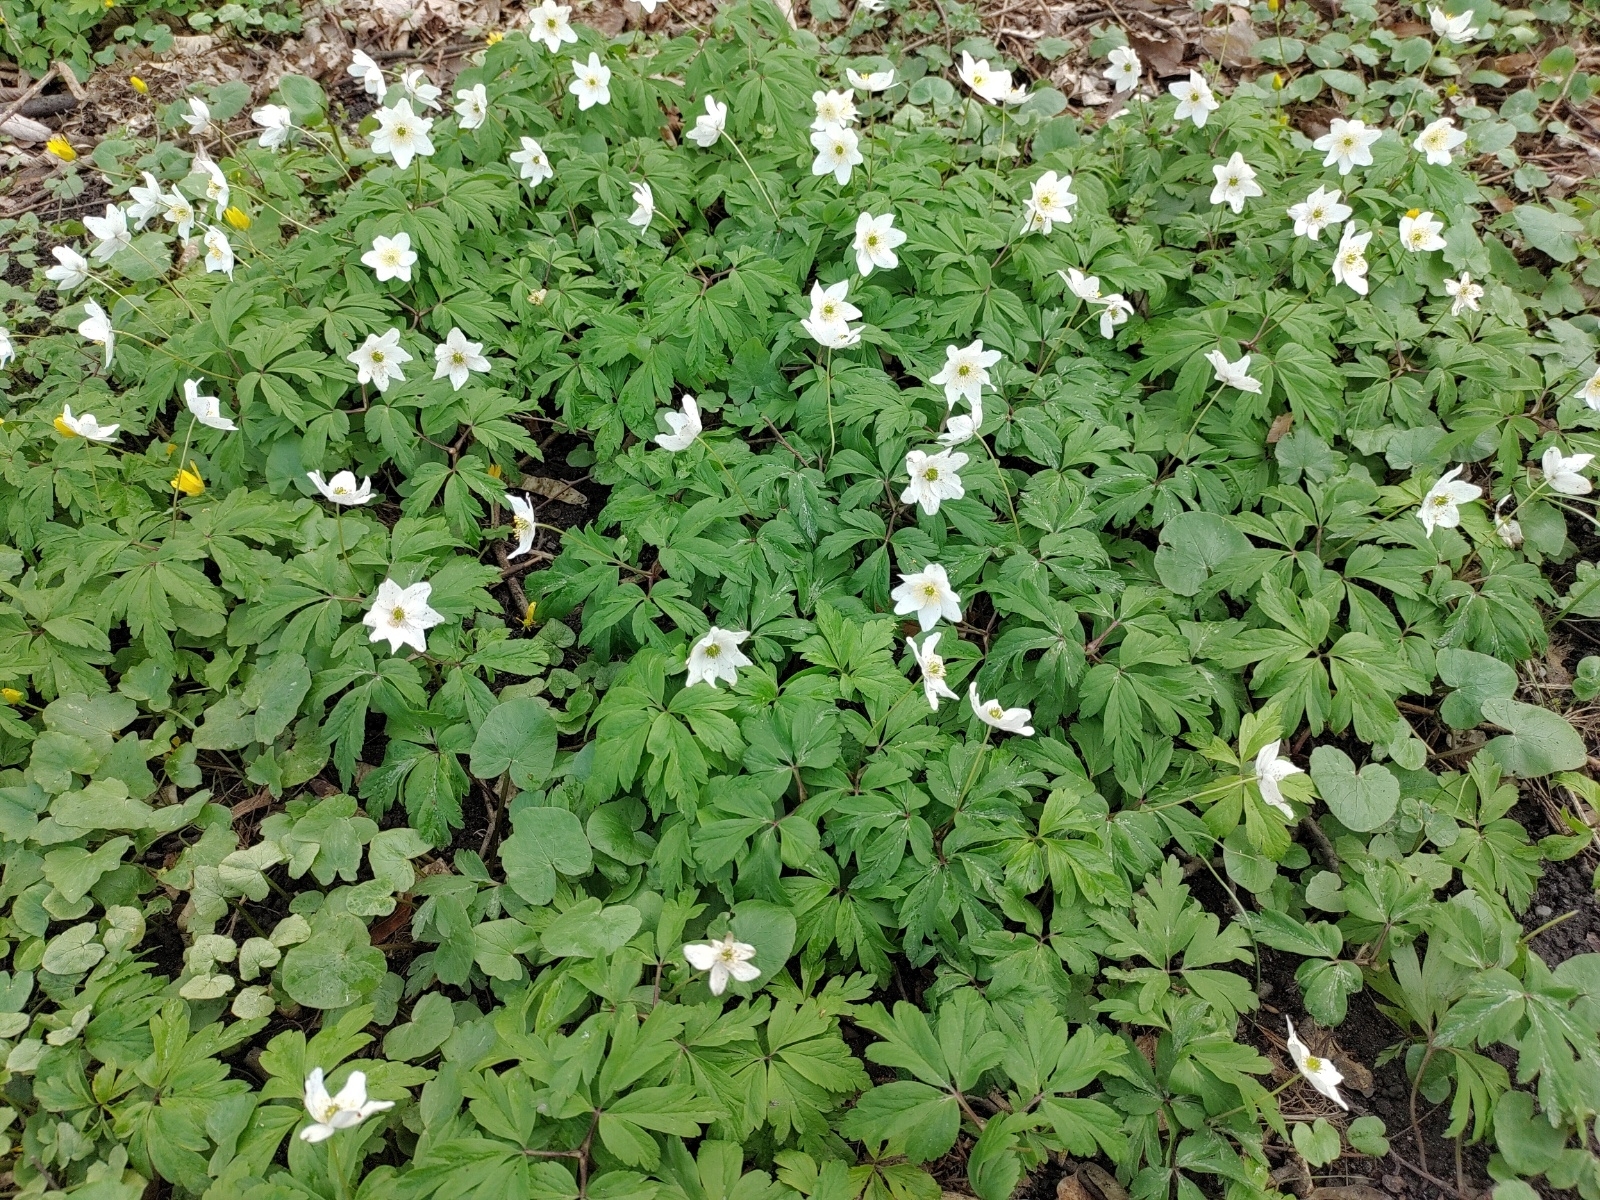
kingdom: Plantae
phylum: Tracheophyta
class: Magnoliopsida
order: Ranunculales
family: Ranunculaceae
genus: Anemone
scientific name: Anemone nemorosa
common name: Wood anemone
